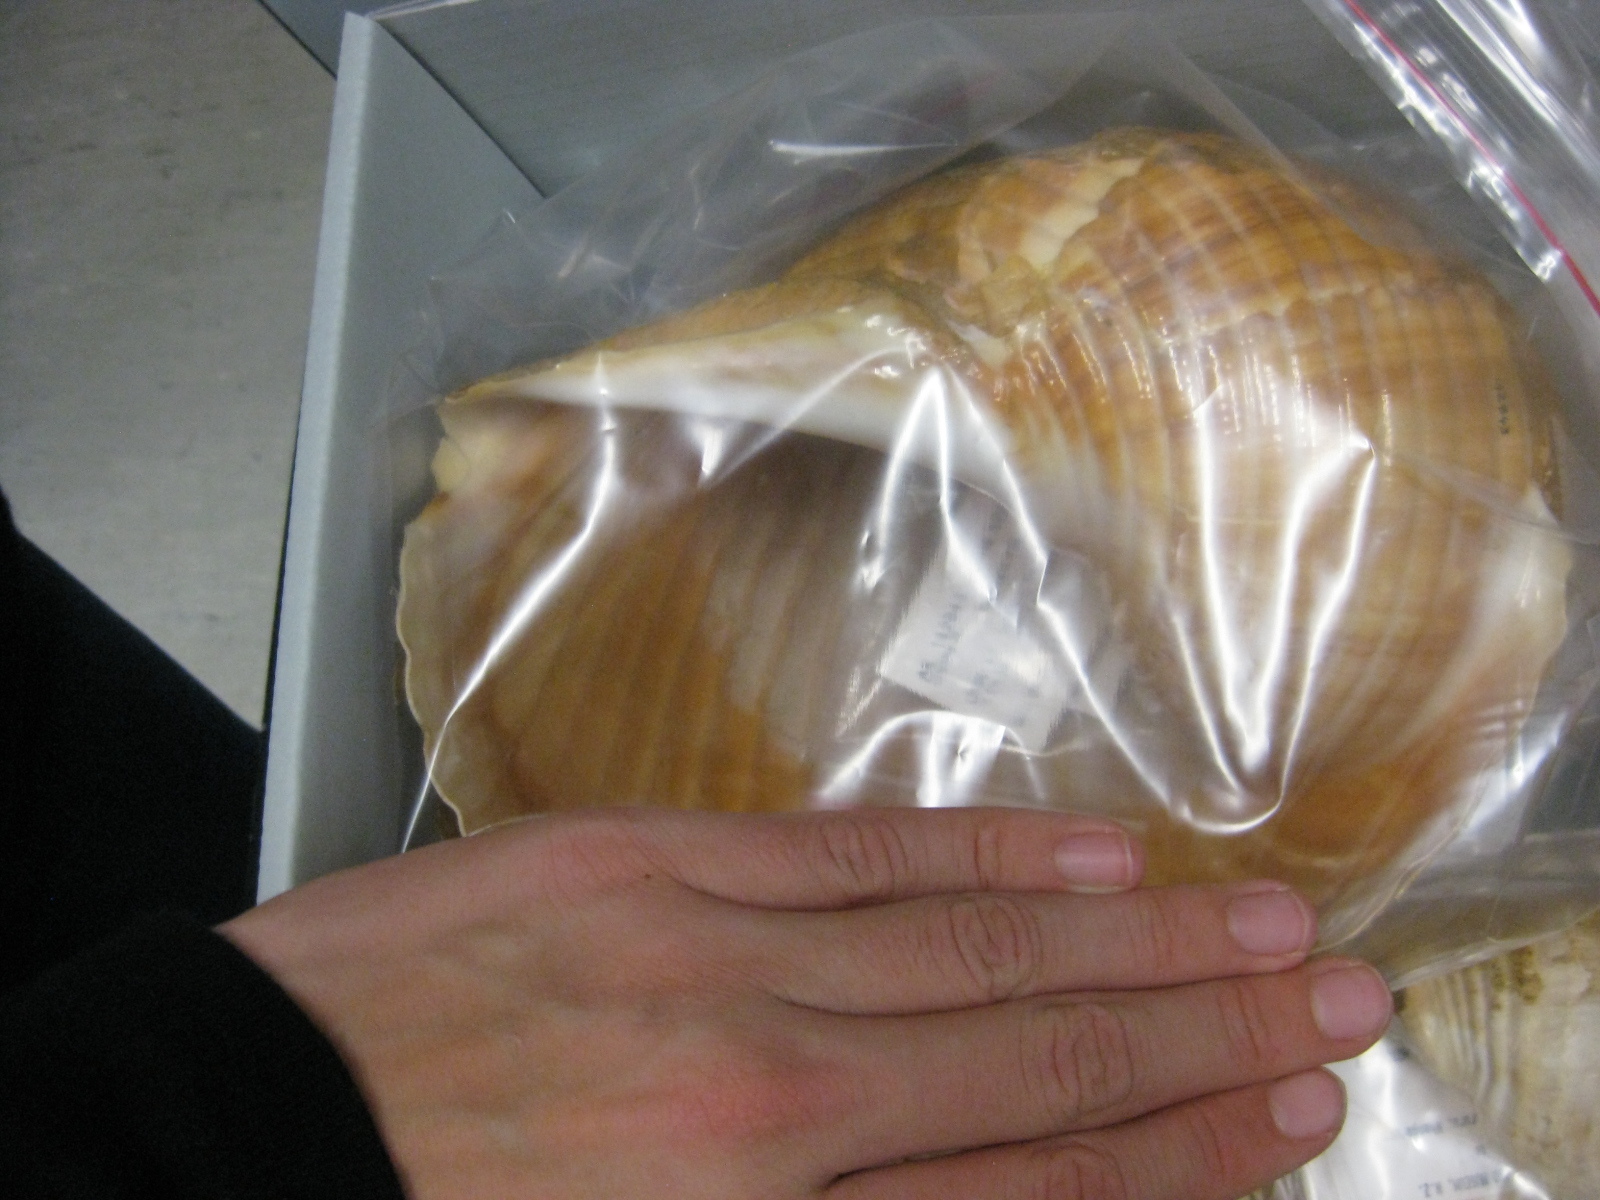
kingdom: Animalia
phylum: Mollusca
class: Gastropoda
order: Littorinimorpha
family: Tonnidae
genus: Tonna
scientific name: Tonna tankervillii
